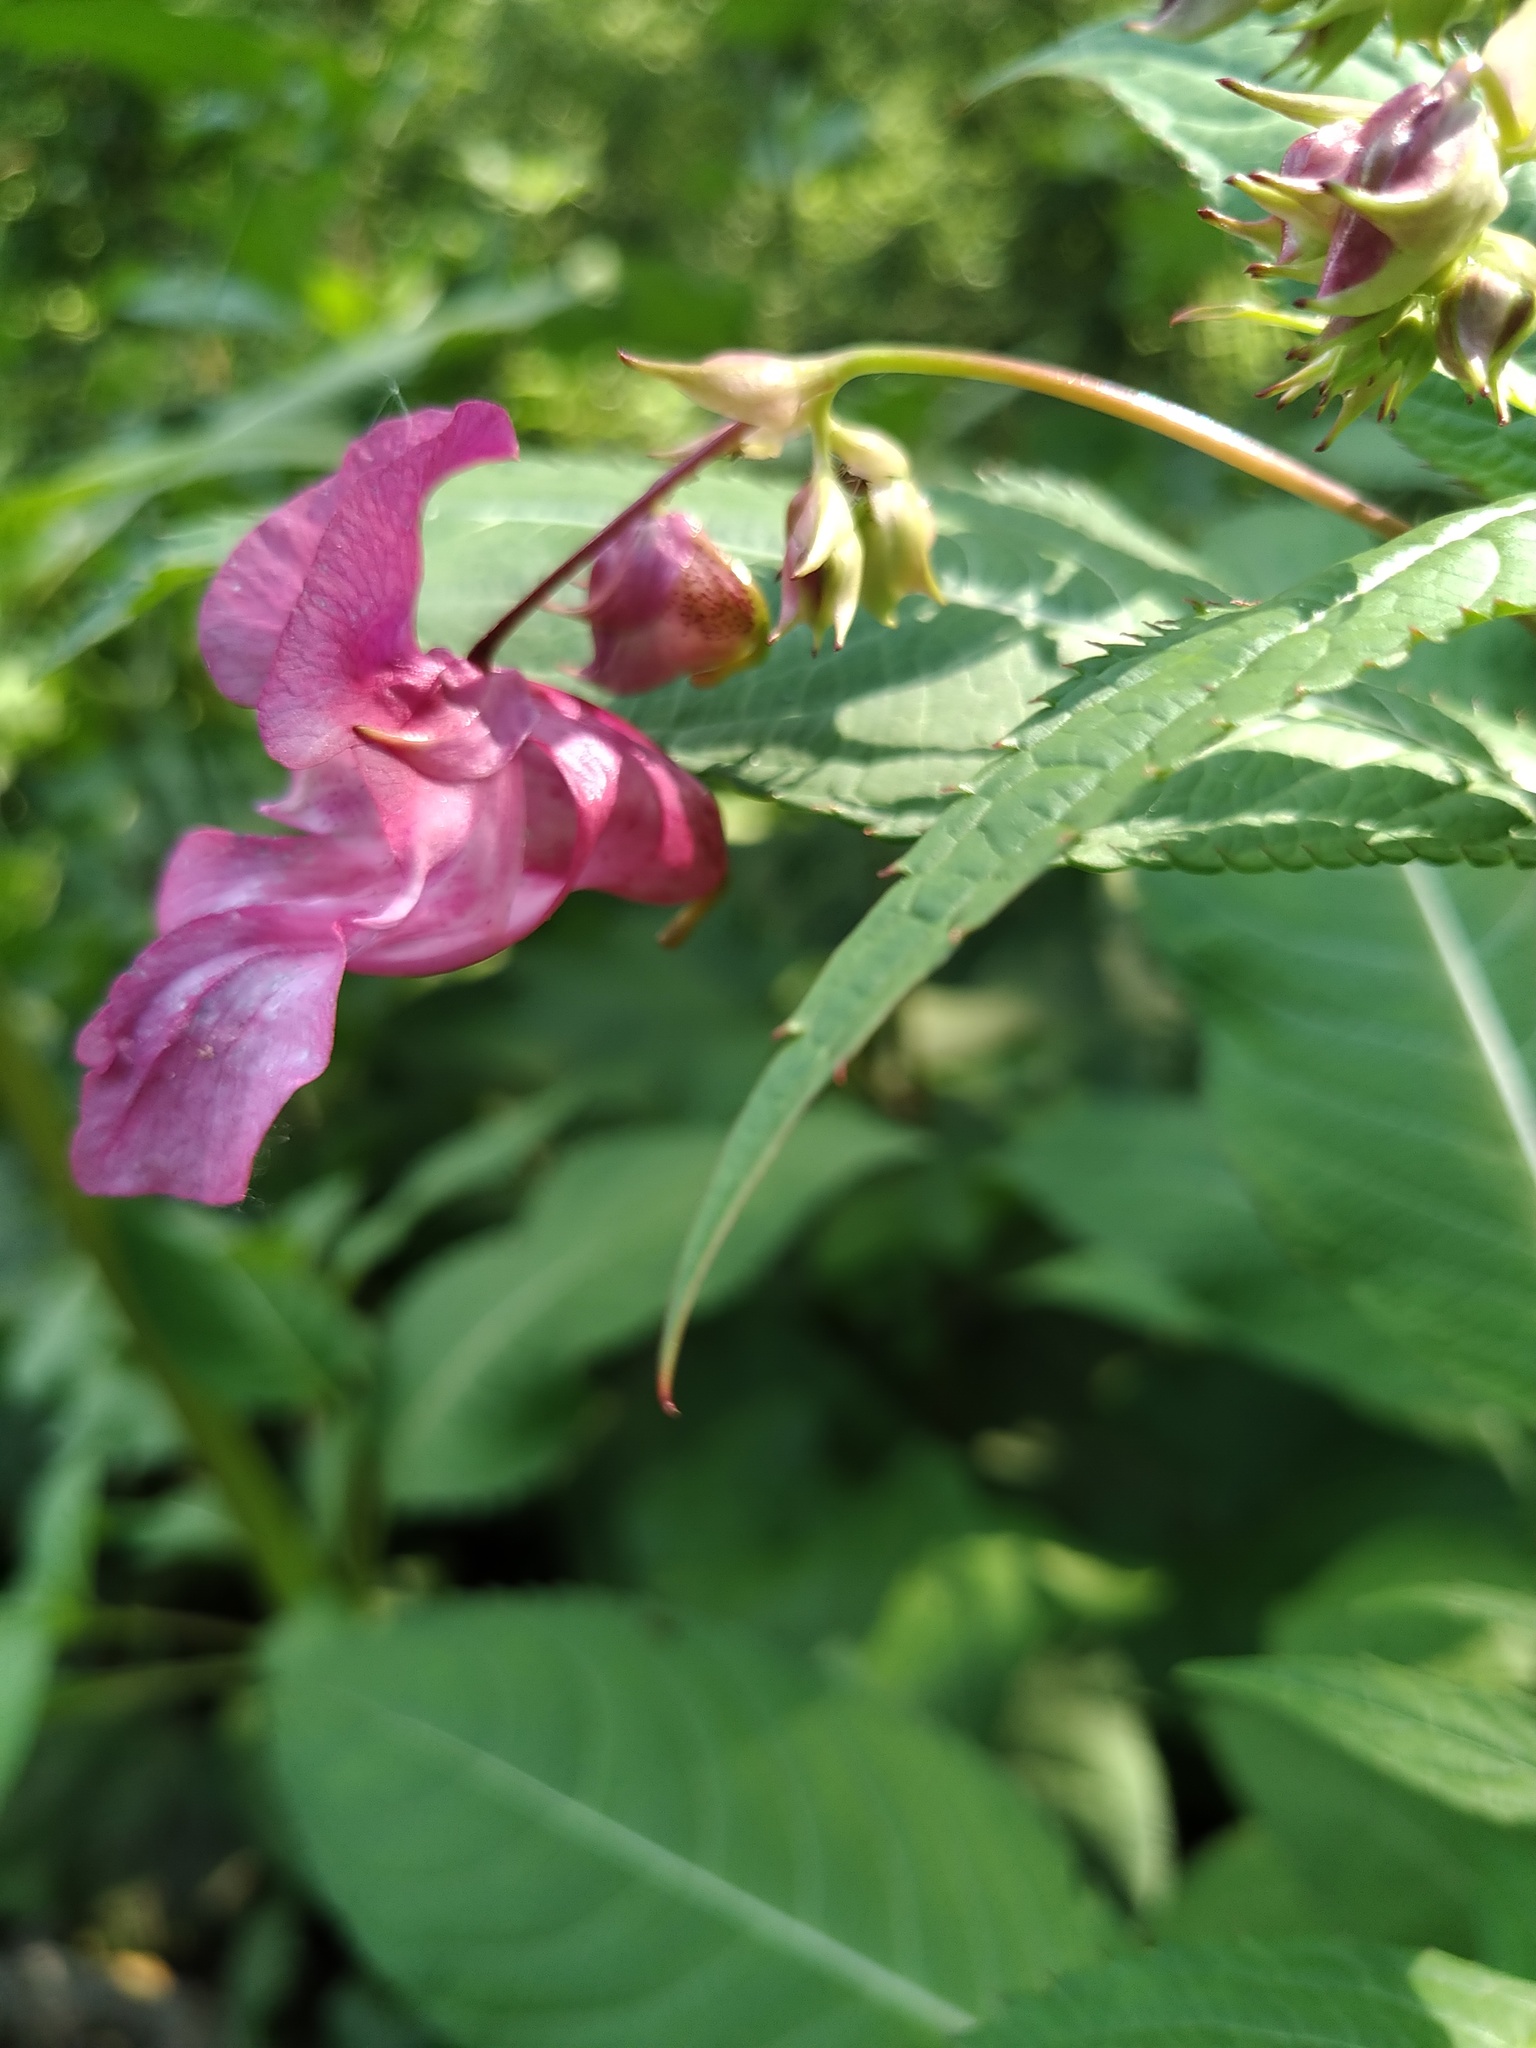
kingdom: Plantae
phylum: Tracheophyta
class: Magnoliopsida
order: Ericales
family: Balsaminaceae
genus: Impatiens
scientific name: Impatiens glandulifera
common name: Himalayan balsam
